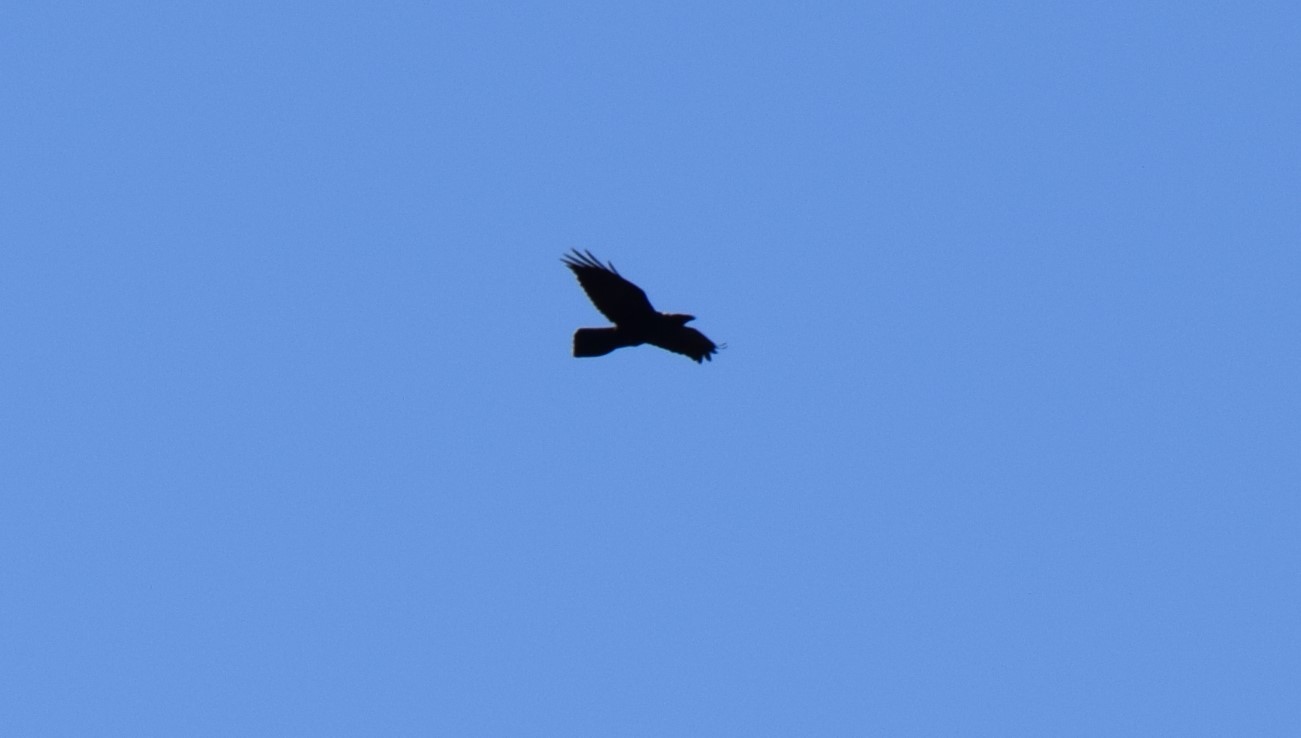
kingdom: Animalia
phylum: Chordata
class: Aves
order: Passeriformes
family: Corvidae
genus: Corvus
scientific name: Corvus corax
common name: Common raven
